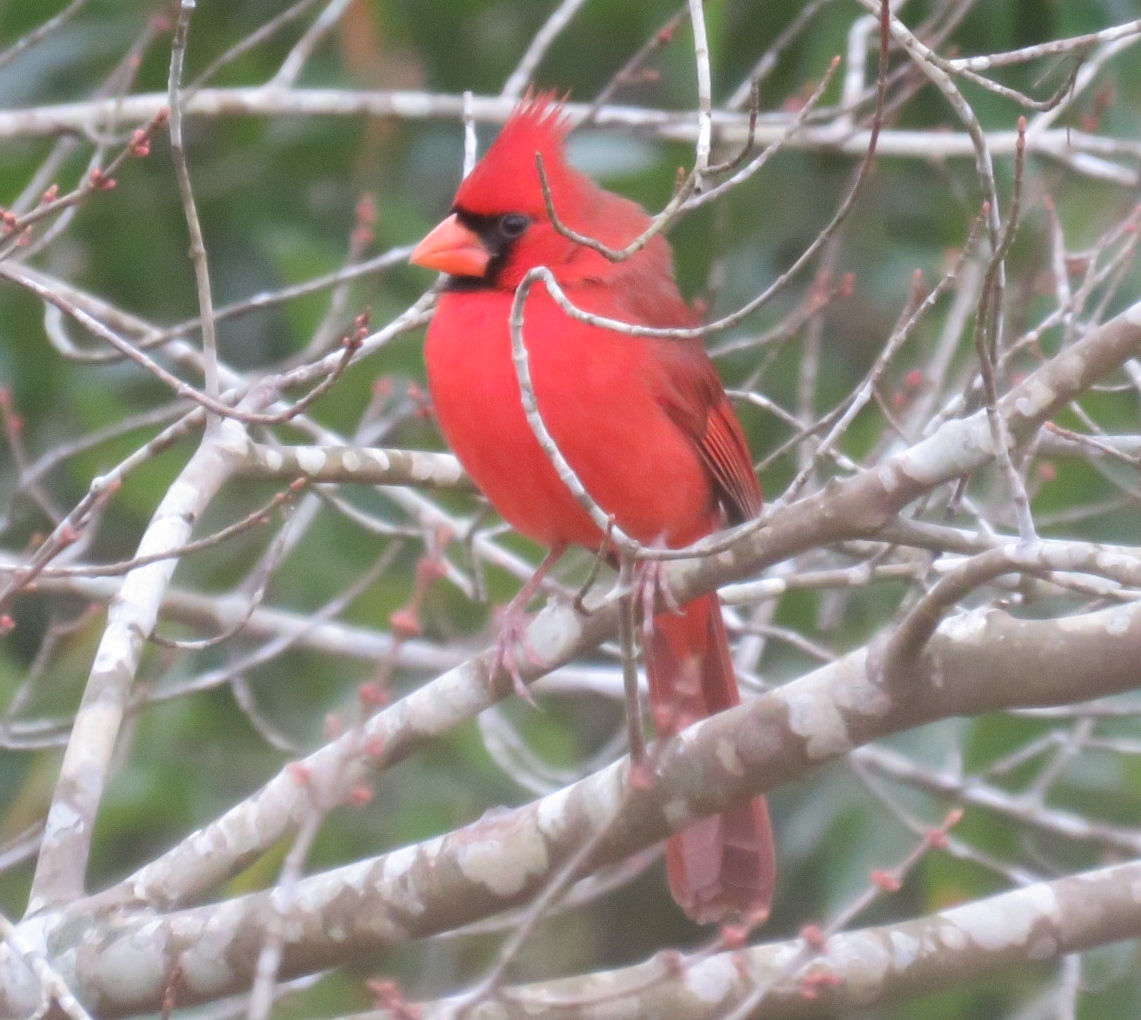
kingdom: Animalia
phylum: Chordata
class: Aves
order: Passeriformes
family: Cardinalidae
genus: Cardinalis
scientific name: Cardinalis cardinalis
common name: Northern cardinal
